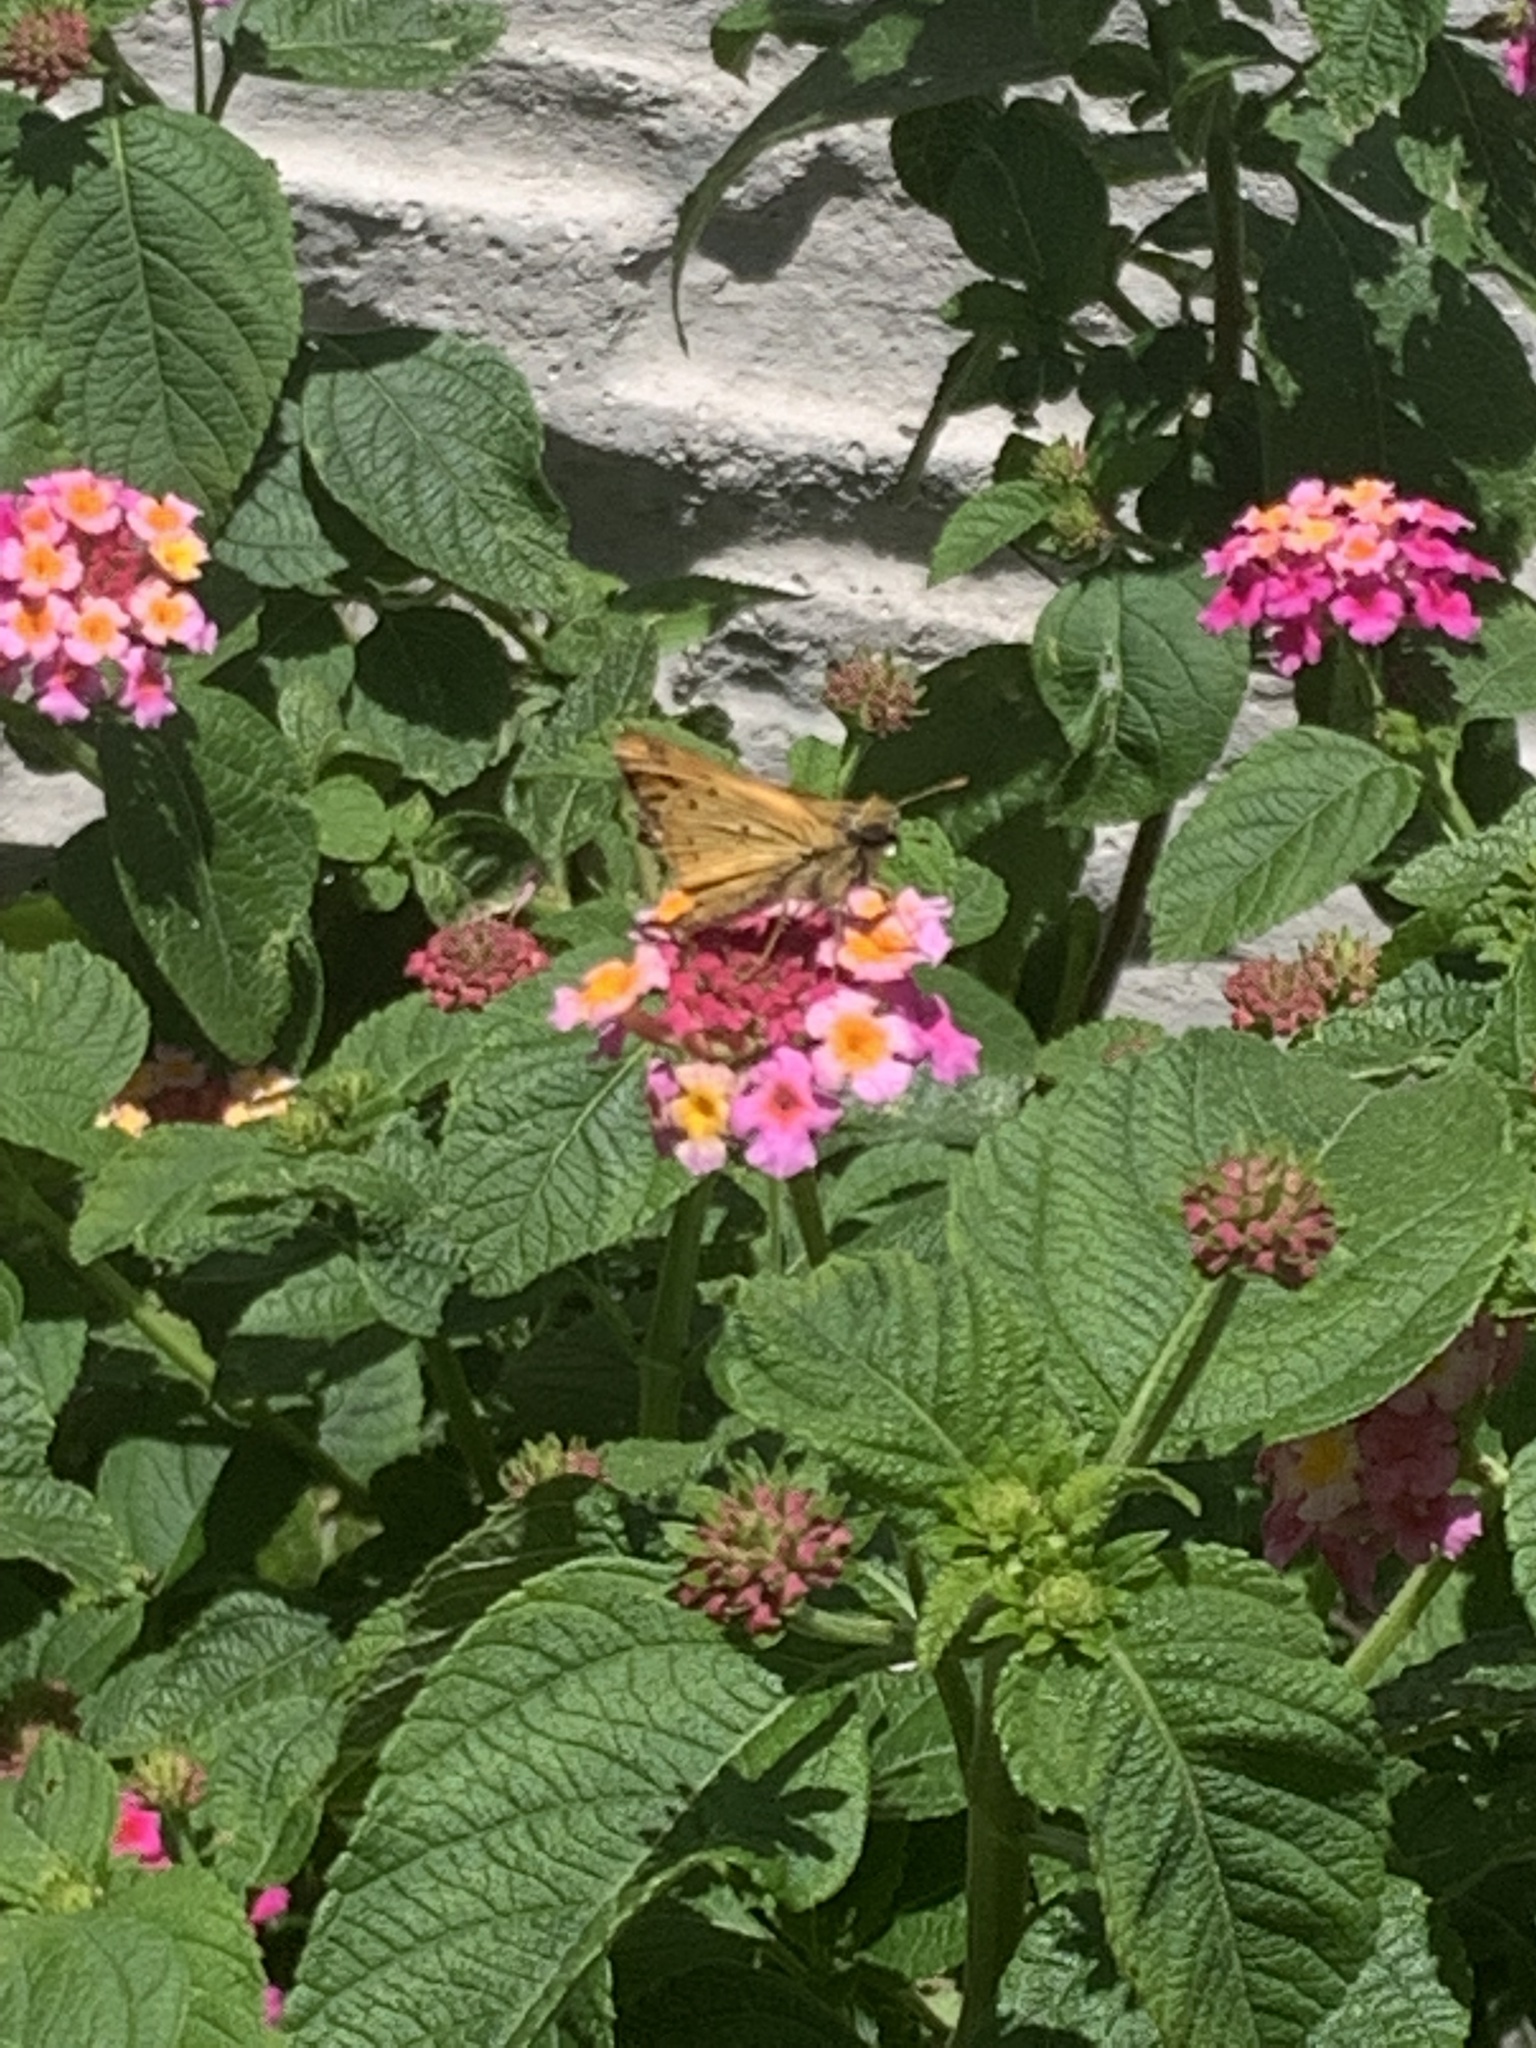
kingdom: Animalia
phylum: Arthropoda
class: Insecta
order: Lepidoptera
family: Hesperiidae
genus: Hylephila
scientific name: Hylephila phyleus
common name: Fiery skipper
